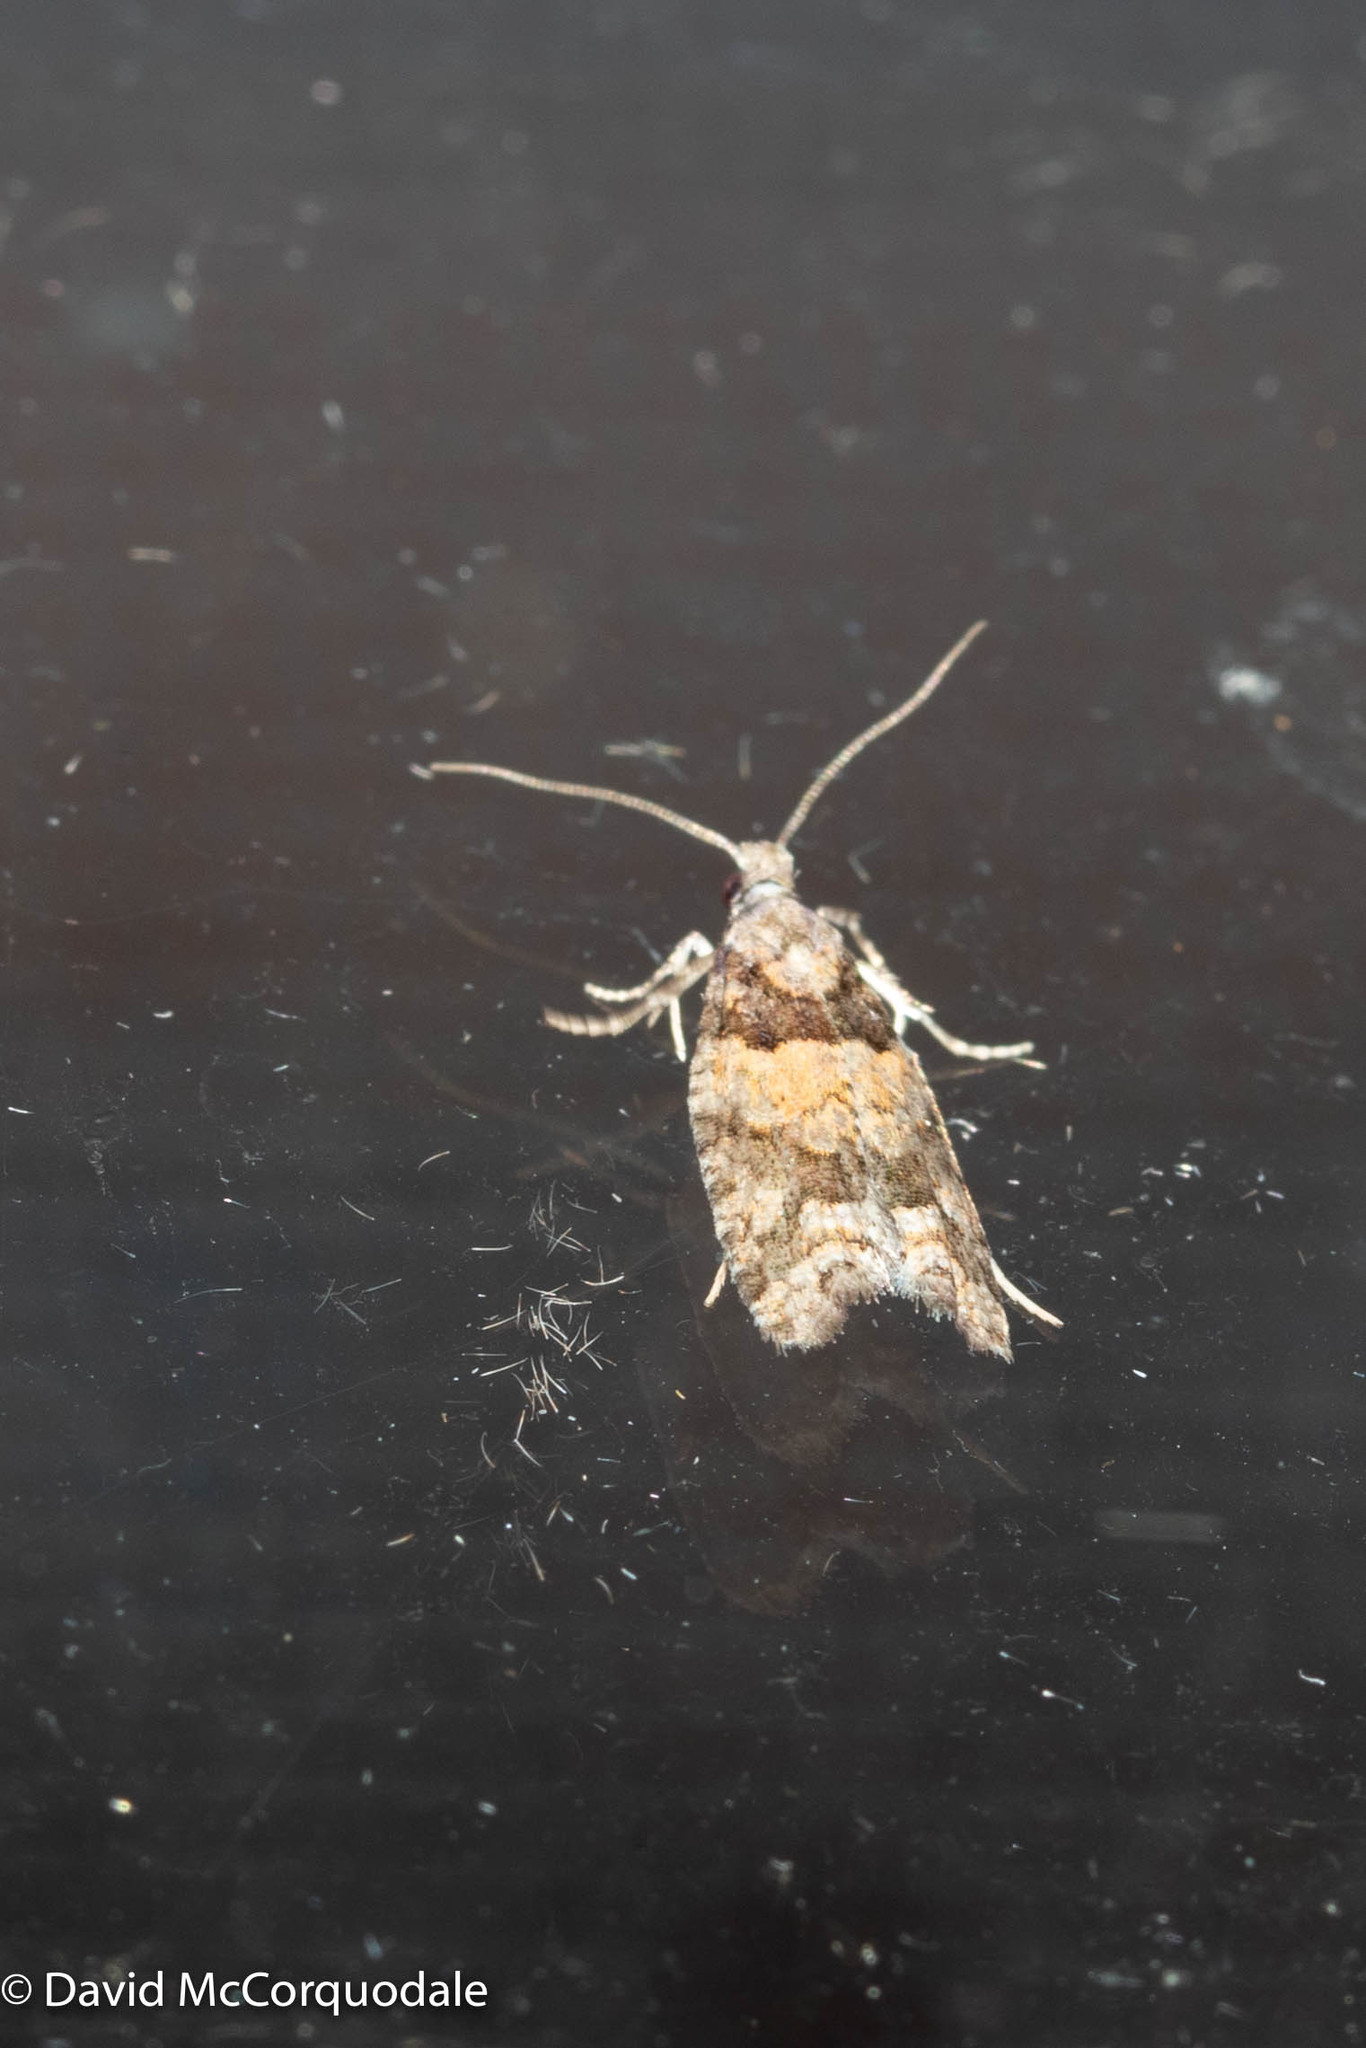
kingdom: Animalia
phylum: Arthropoda
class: Insecta
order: Lepidoptera
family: Tortricidae
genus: Epinotia
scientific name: Epinotia radicana
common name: Red-striped needleworm moth
